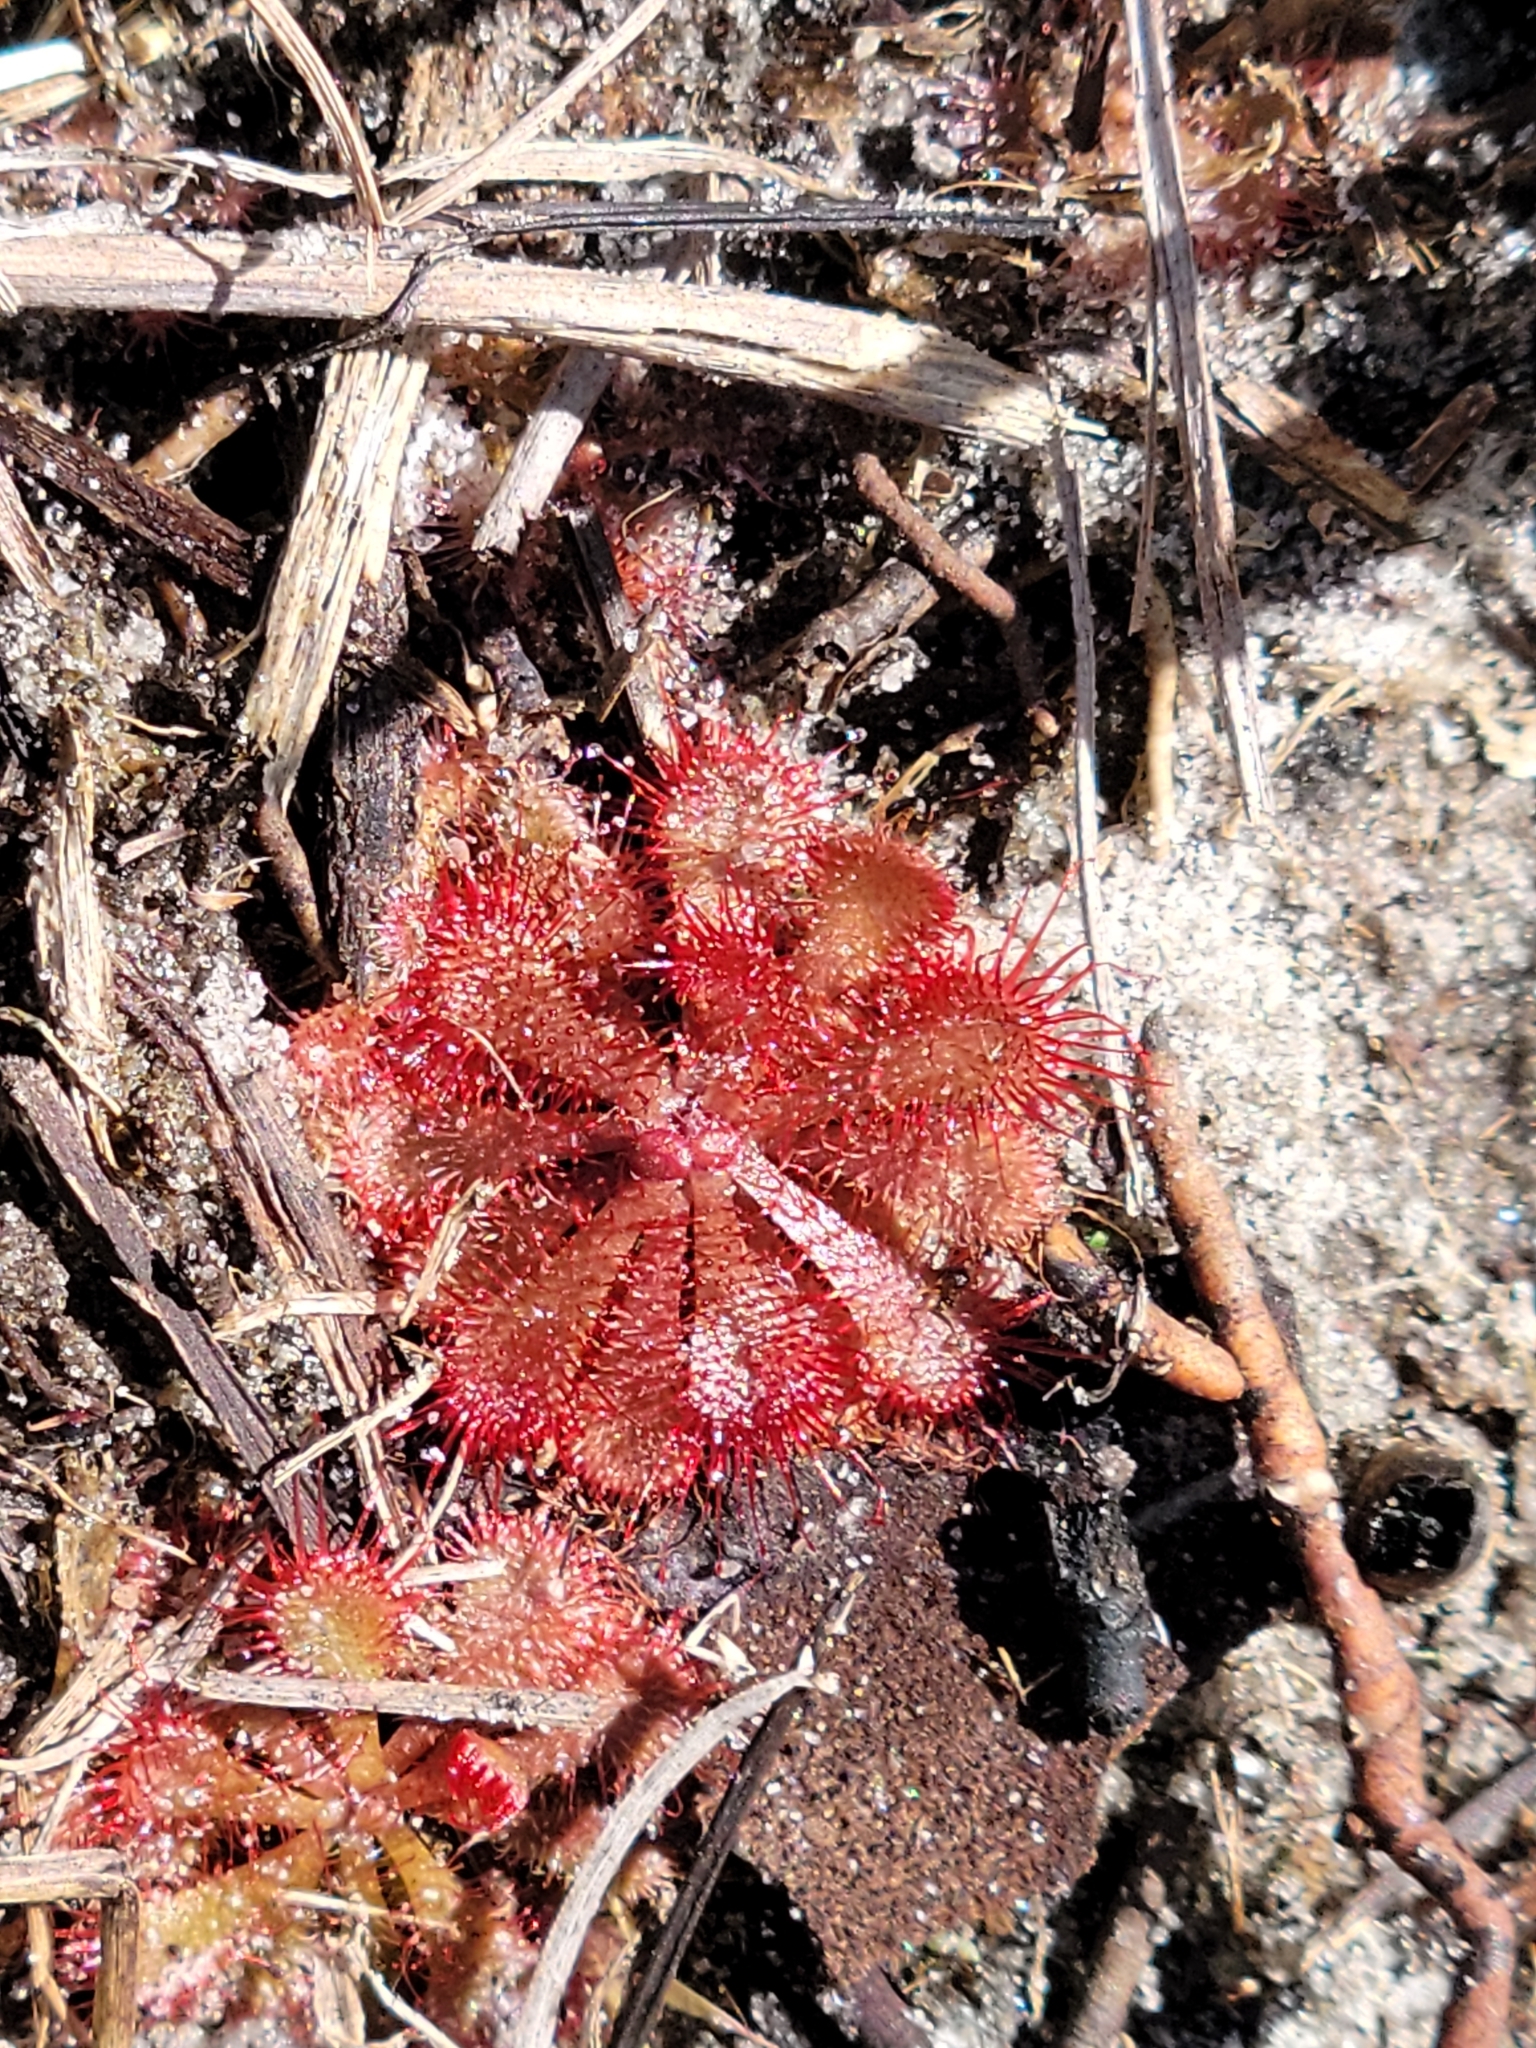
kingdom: Plantae
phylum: Tracheophyta
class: Magnoliopsida
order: Caryophyllales
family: Droseraceae
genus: Drosera
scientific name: Drosera brevifolia
